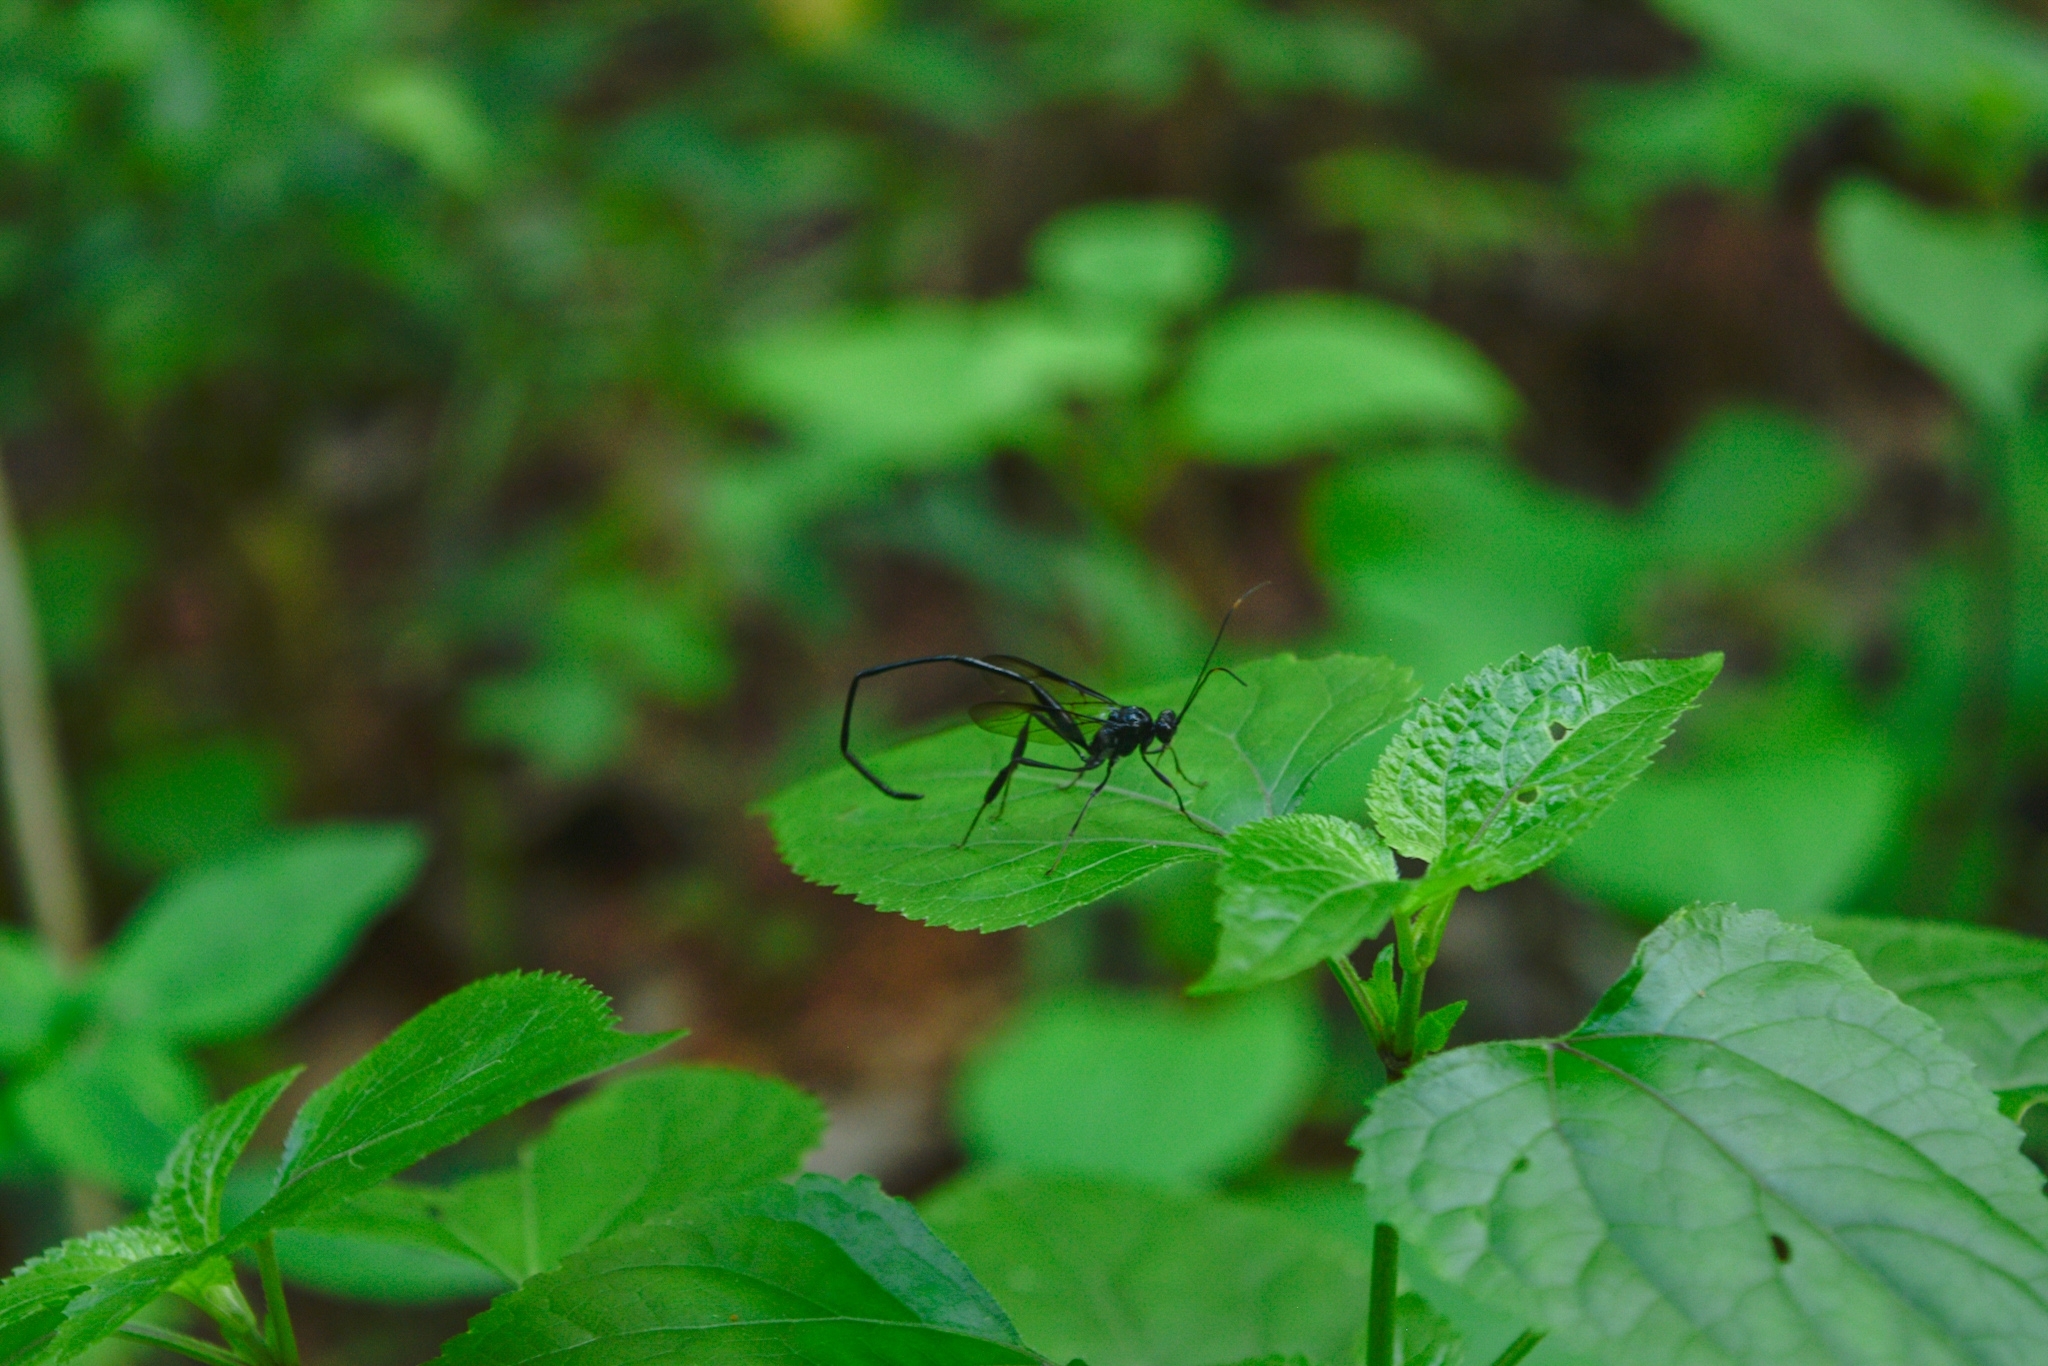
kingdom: Animalia
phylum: Arthropoda
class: Insecta
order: Hymenoptera
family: Pelecinidae
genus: Pelecinus
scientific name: Pelecinus polyturator
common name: American pelecinid wasp
